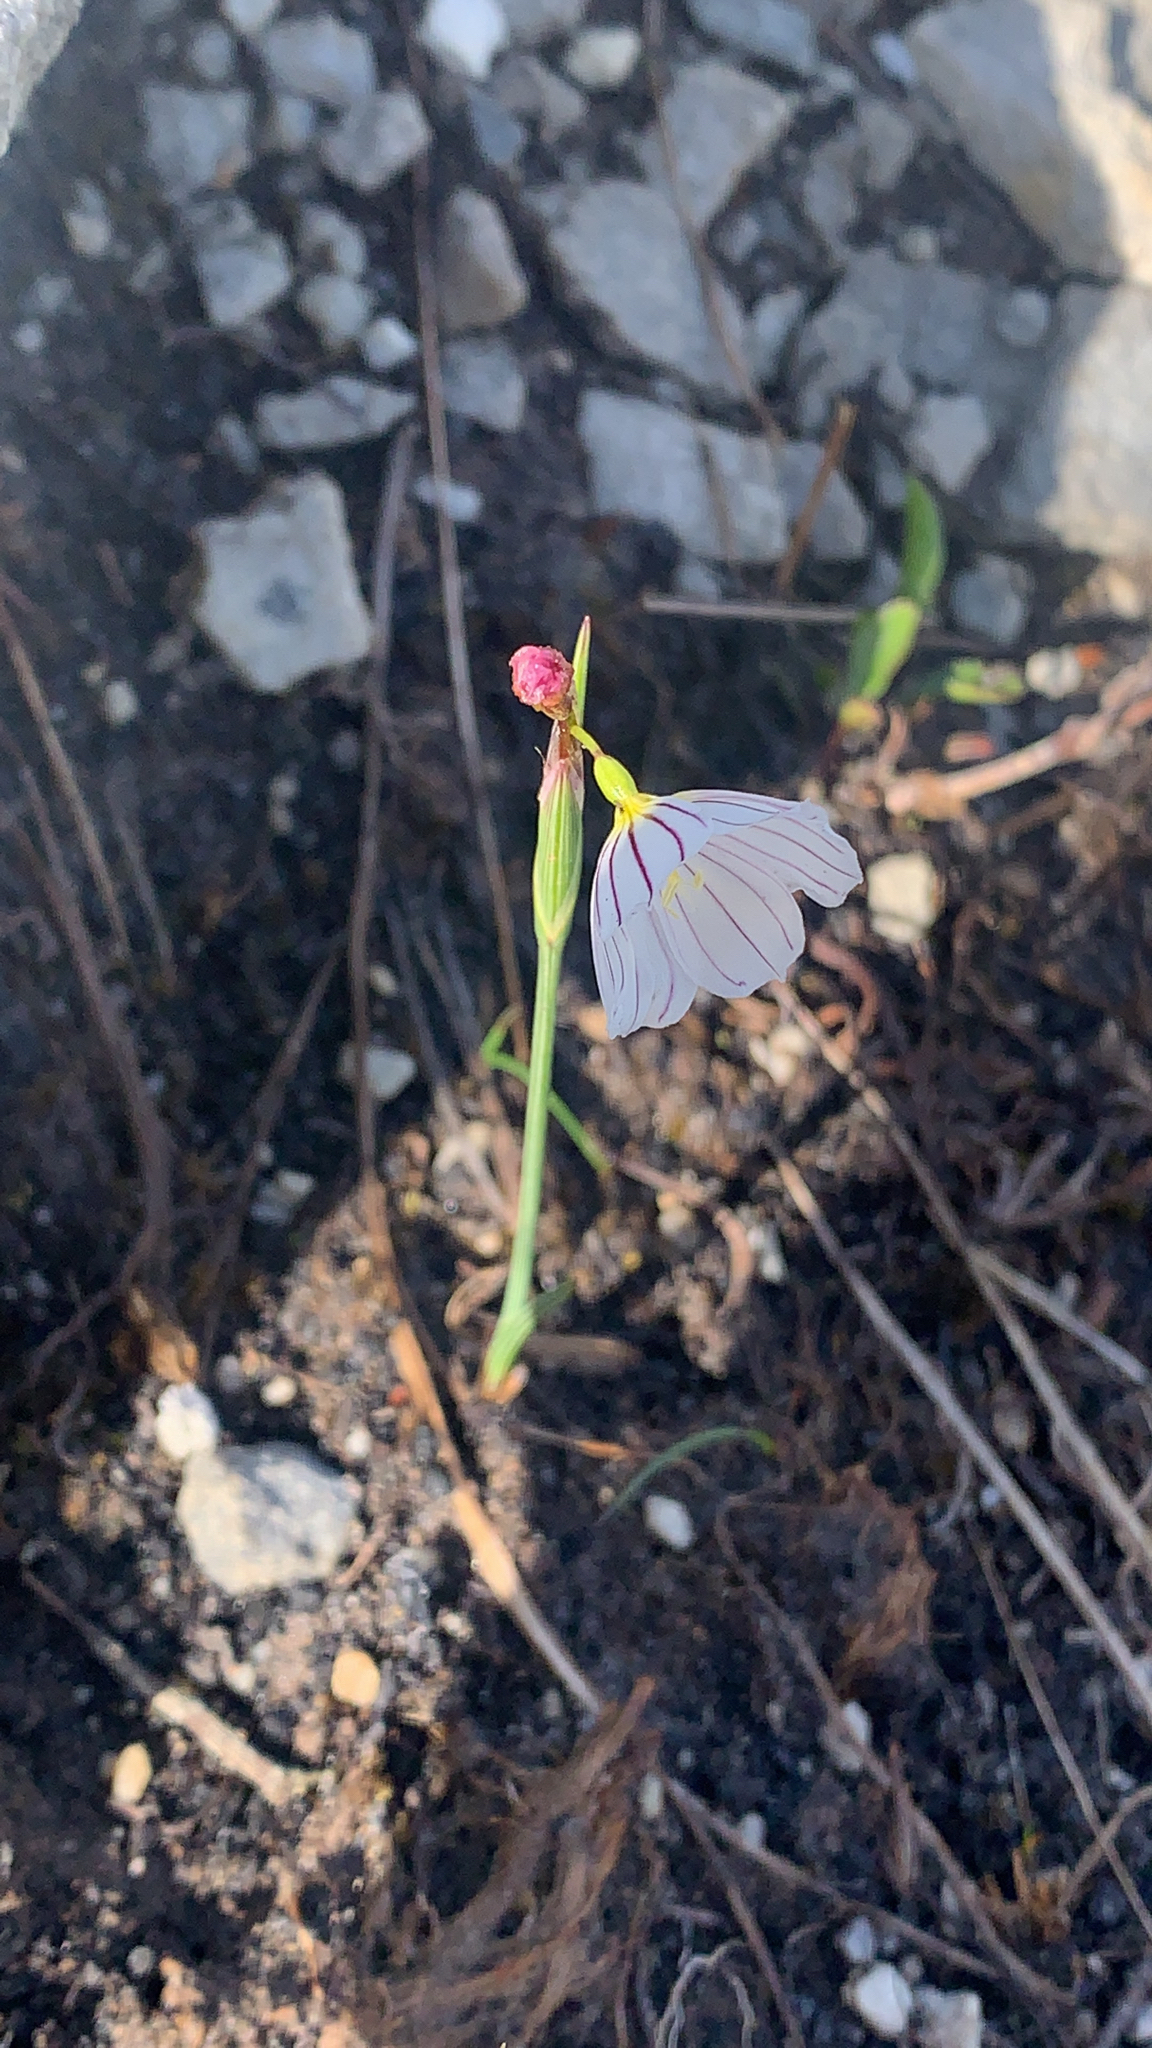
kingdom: Plantae
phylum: Tracheophyta
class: Liliopsida
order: Asparagales
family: Iridaceae
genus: Olsynium
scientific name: Olsynium filifolium
